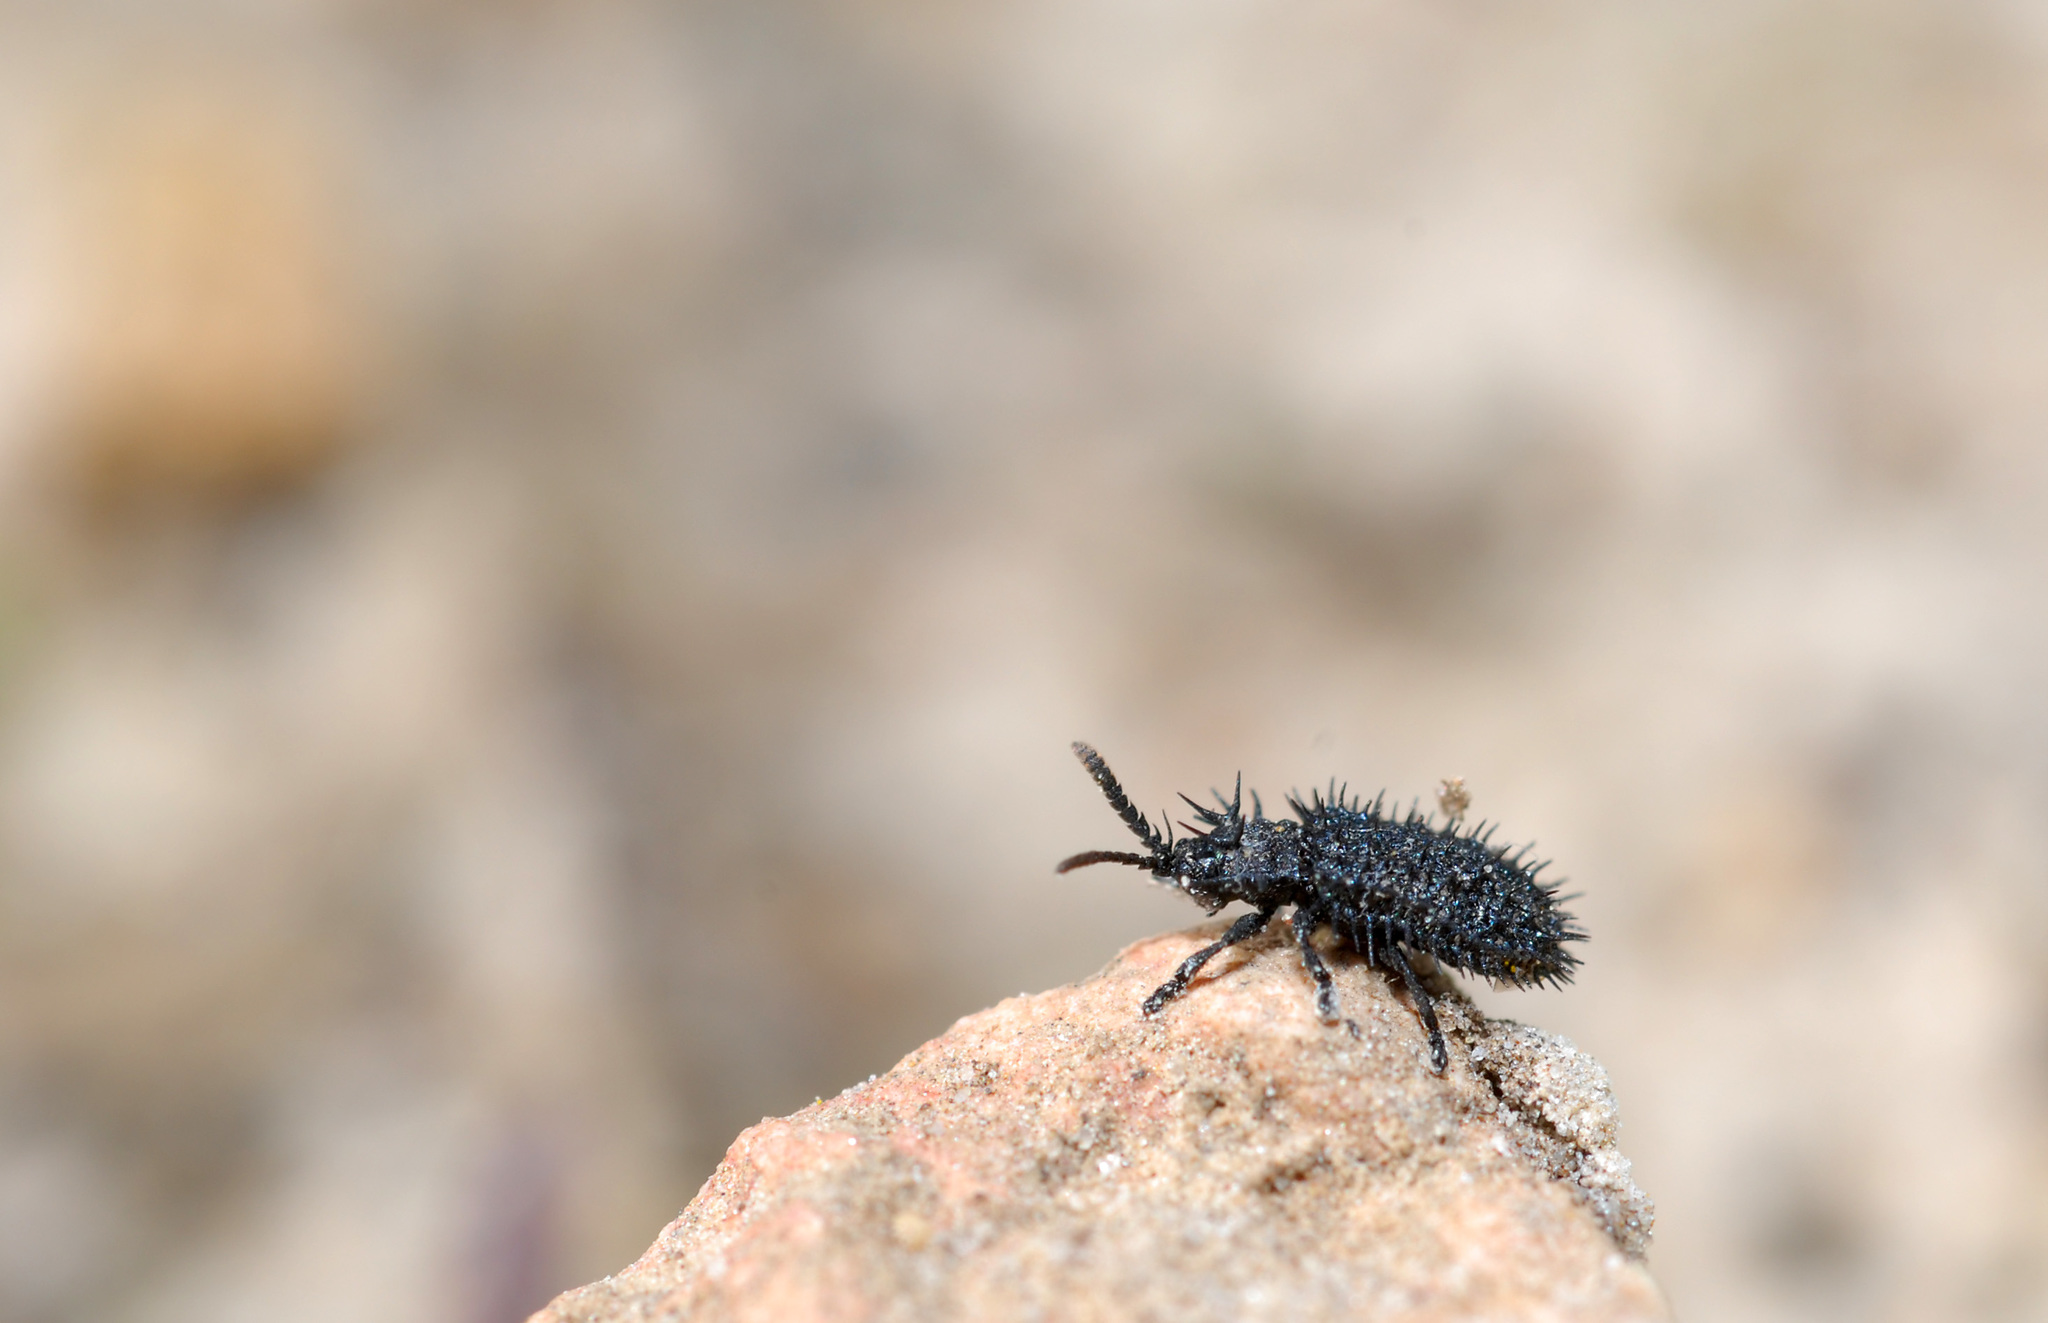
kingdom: Animalia
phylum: Arthropoda
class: Insecta
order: Coleoptera
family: Chrysomelidae
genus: Hispa
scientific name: Hispa atra
